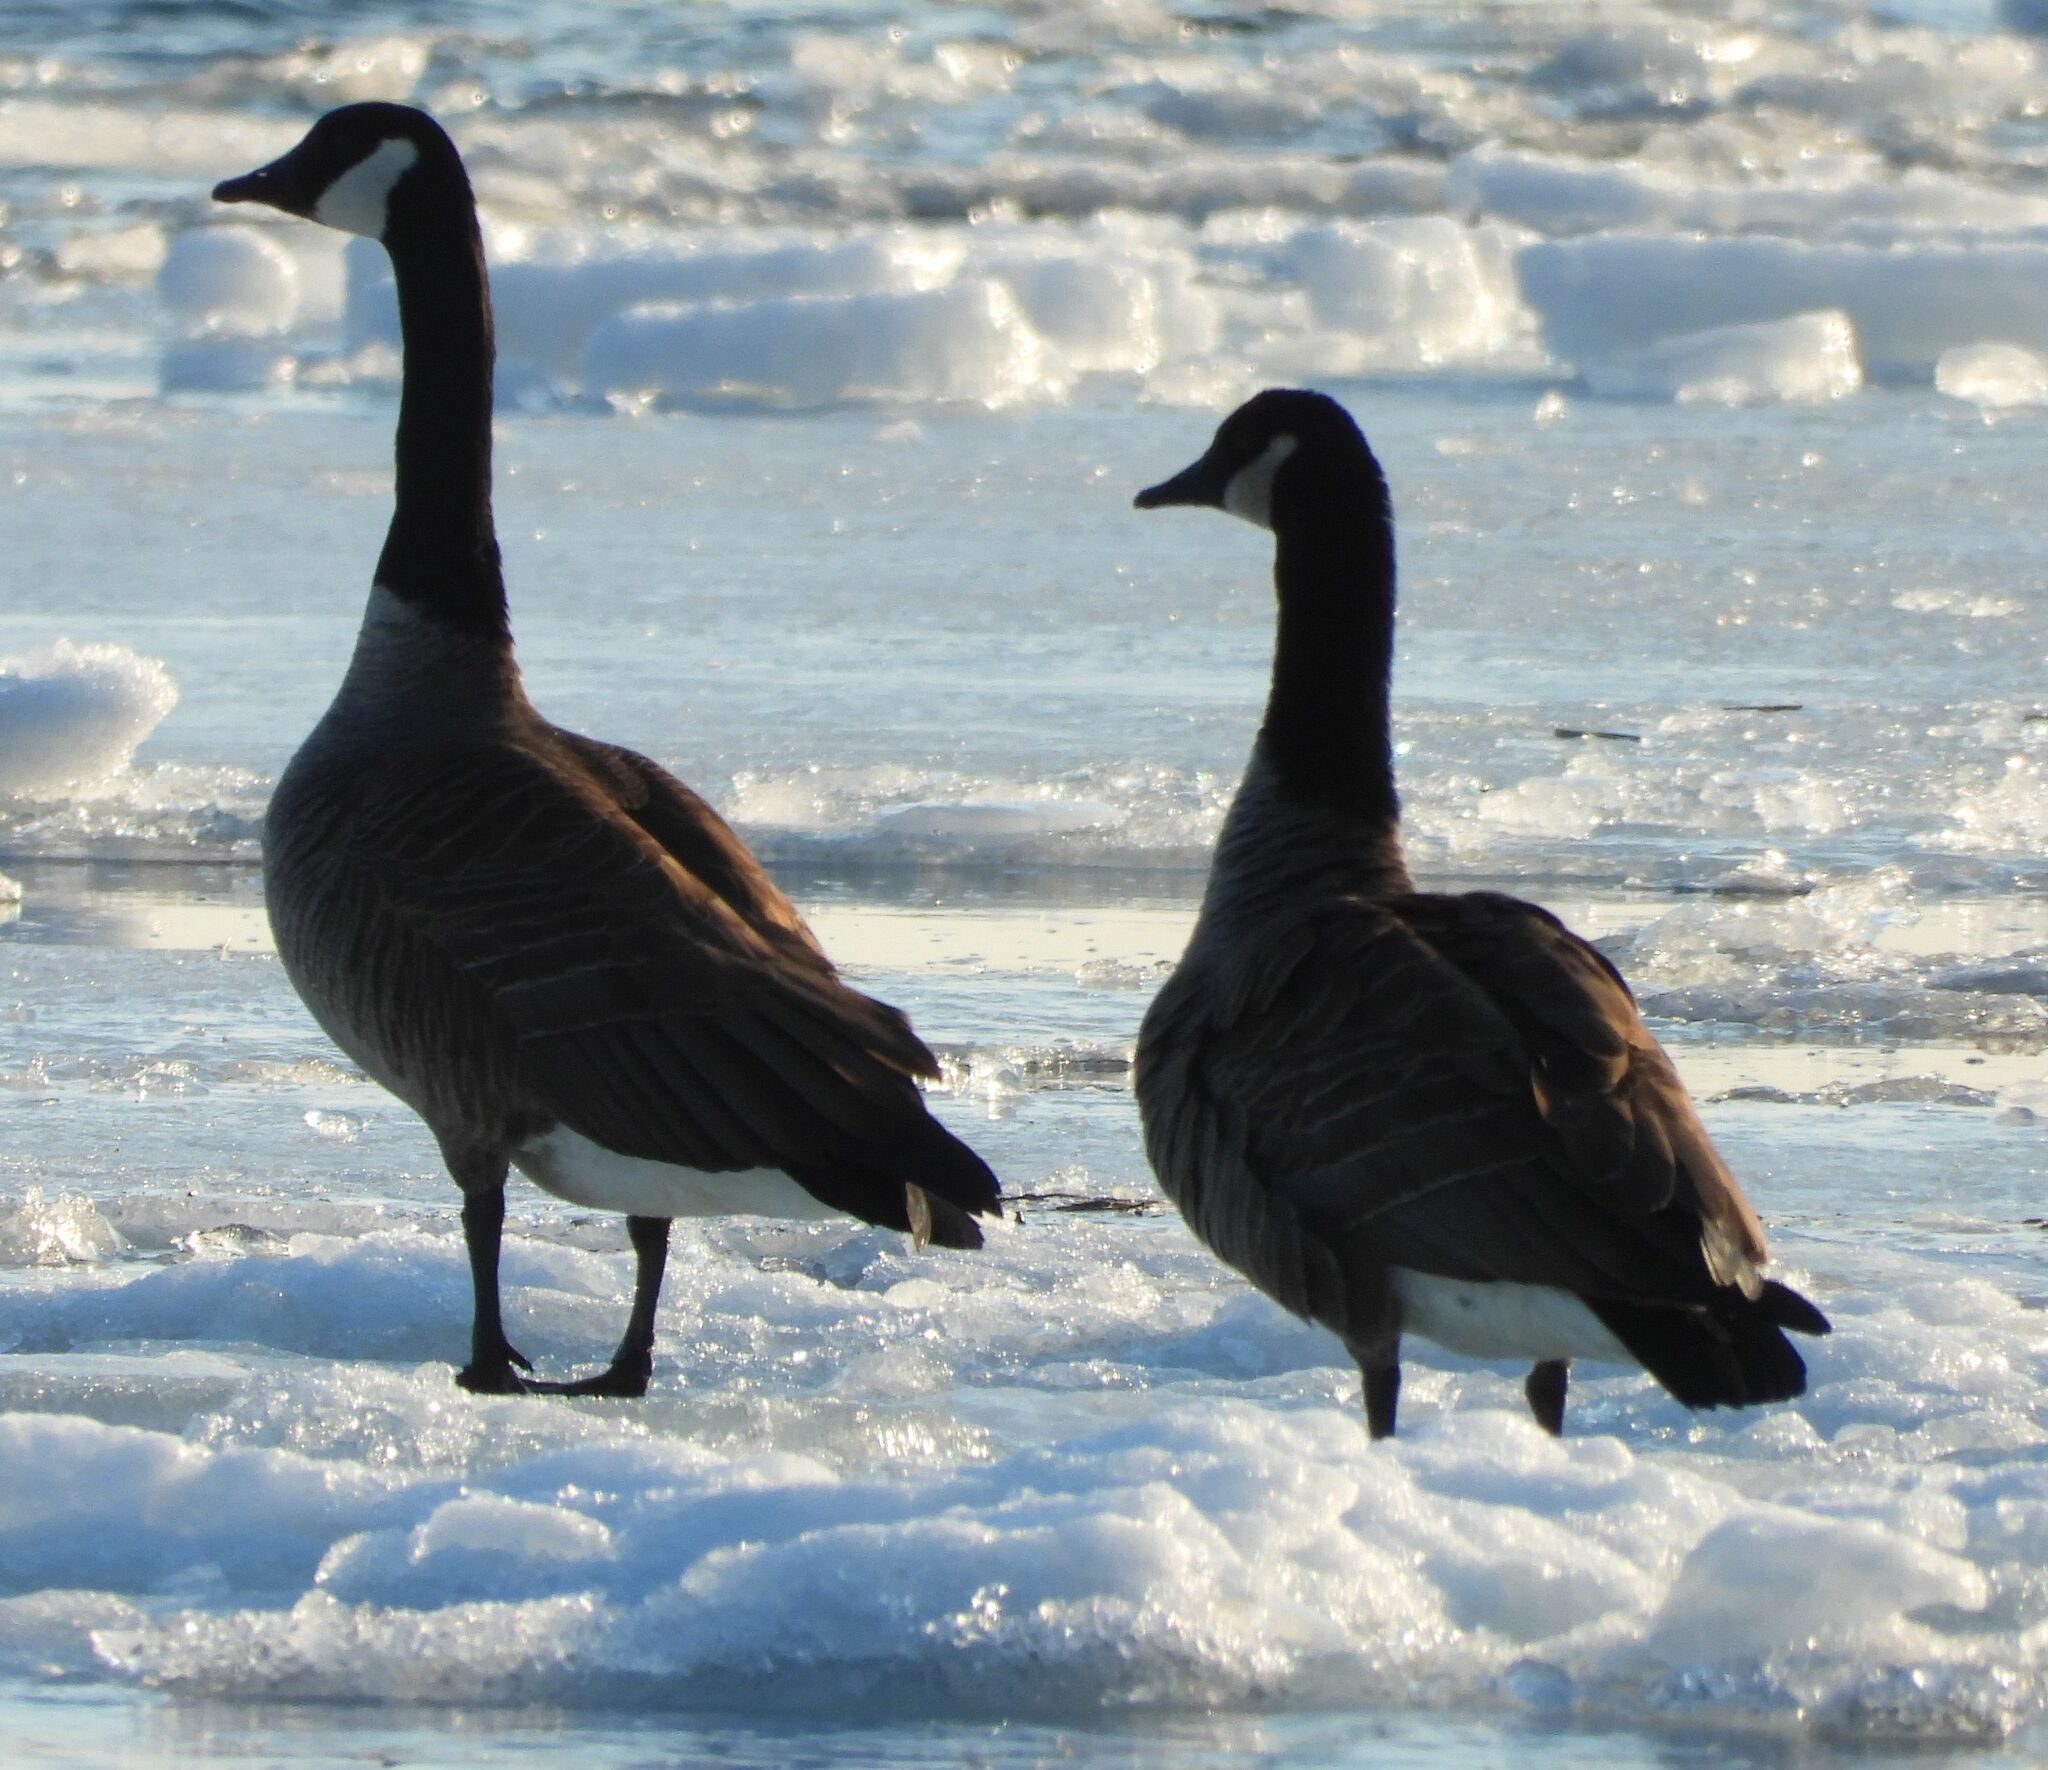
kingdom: Animalia
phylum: Chordata
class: Aves
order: Anseriformes
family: Anatidae
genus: Branta
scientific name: Branta canadensis
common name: Canada goose
